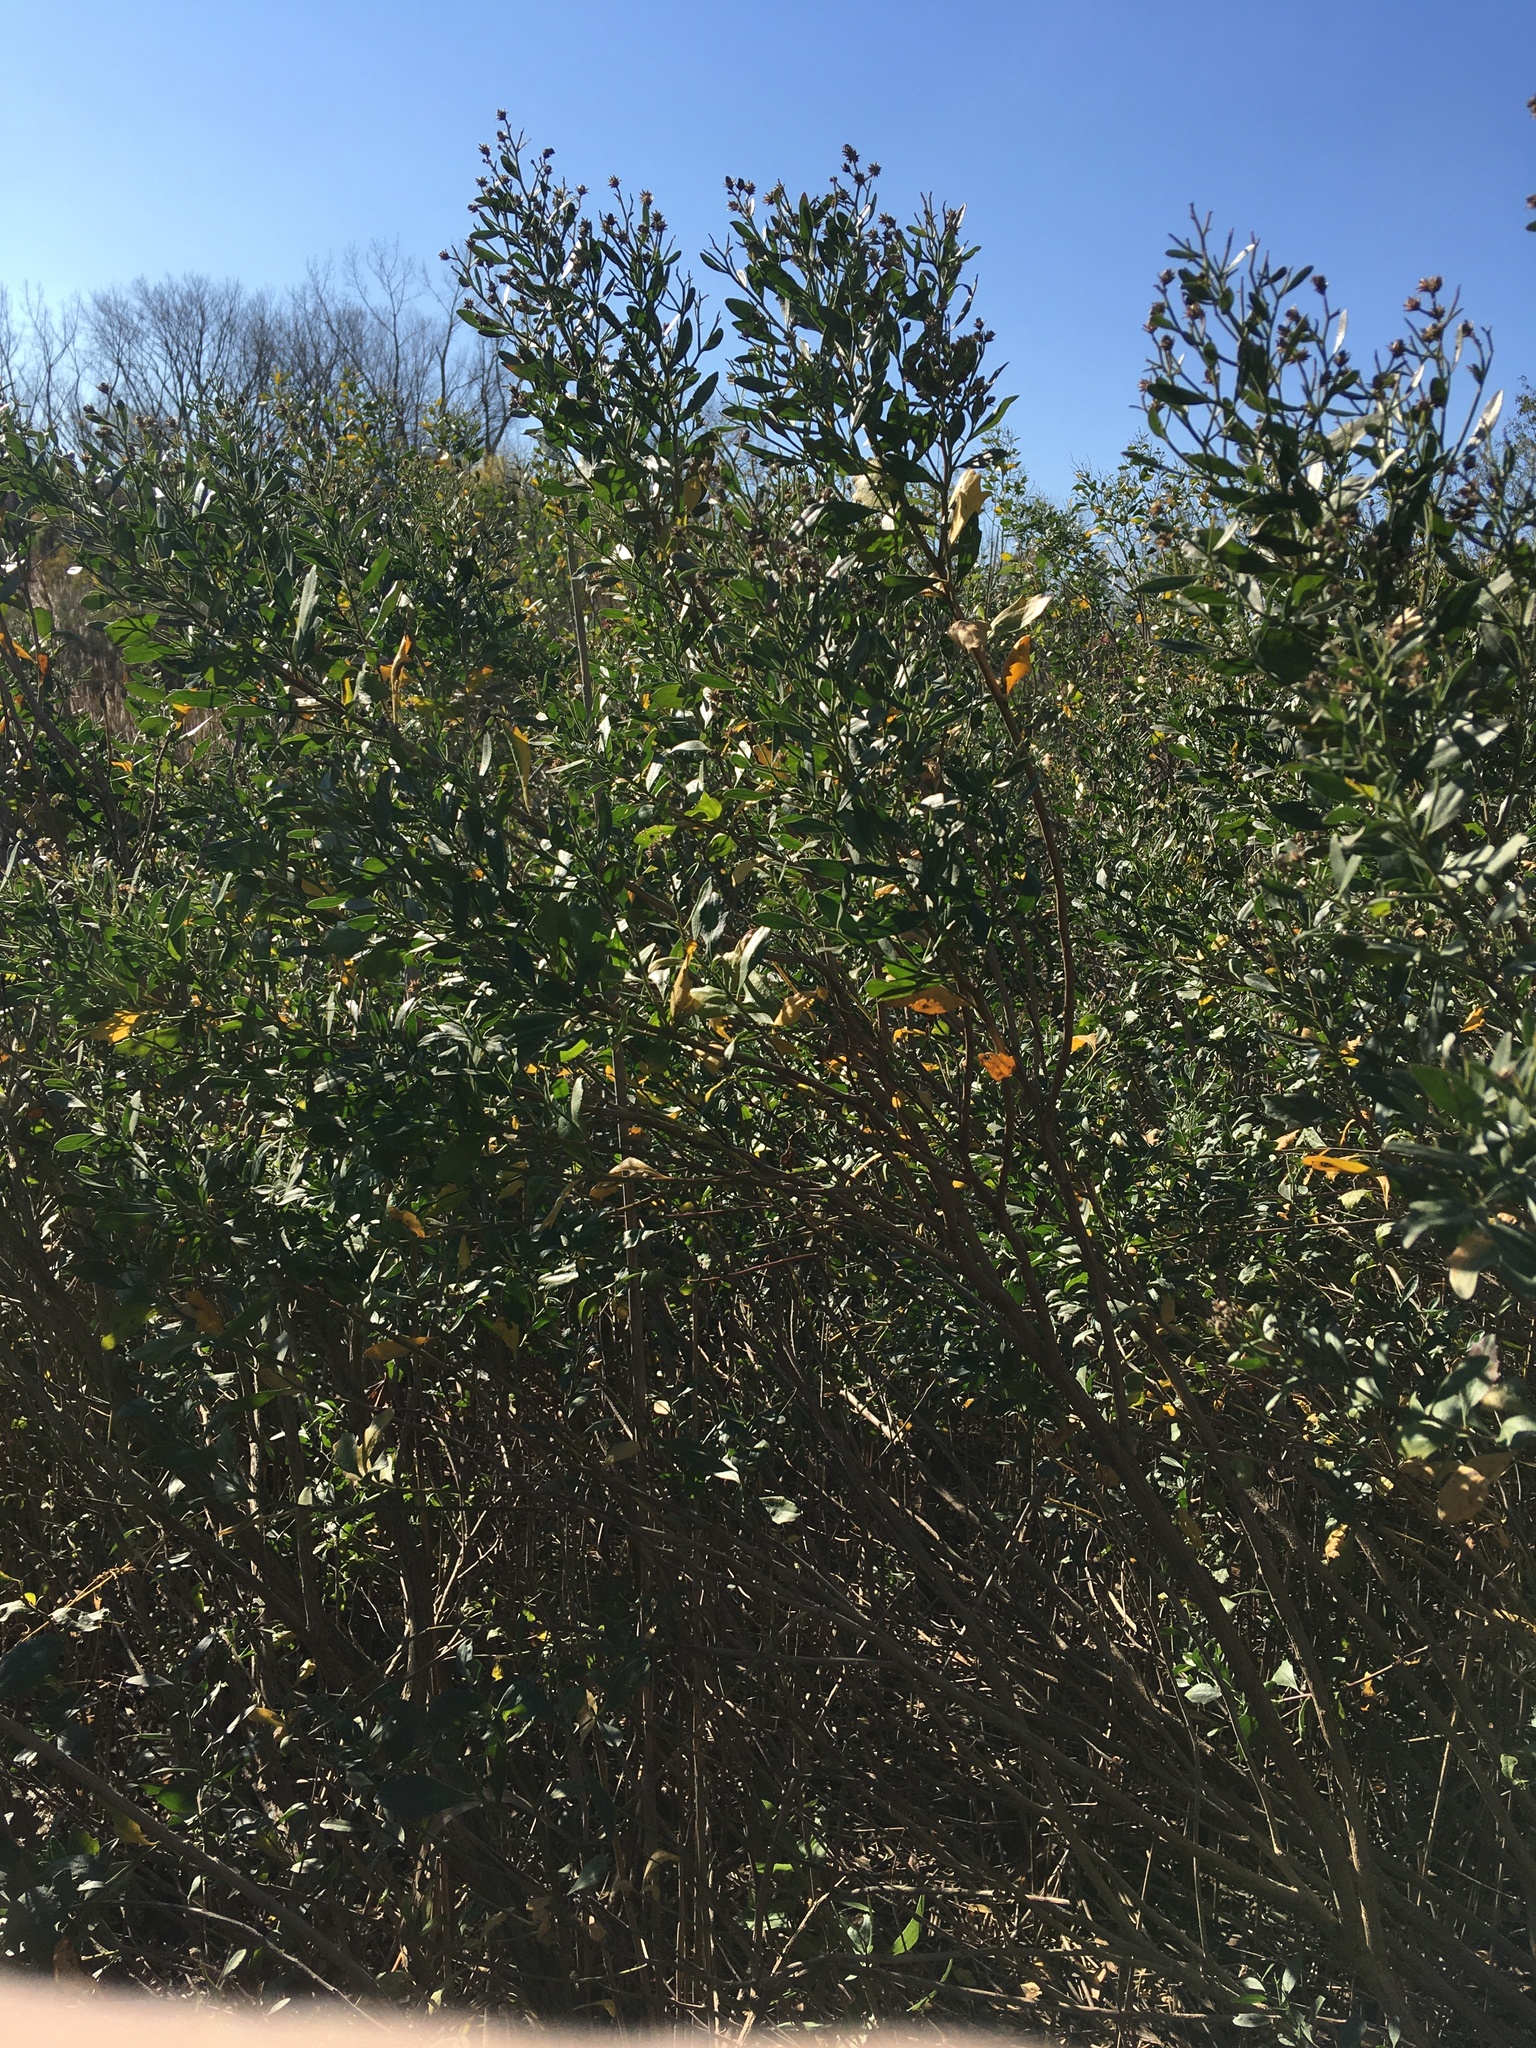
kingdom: Plantae
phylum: Tracheophyta
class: Magnoliopsida
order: Asterales
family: Asteraceae
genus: Baccharis
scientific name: Baccharis halimifolia
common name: Eastern baccharis
